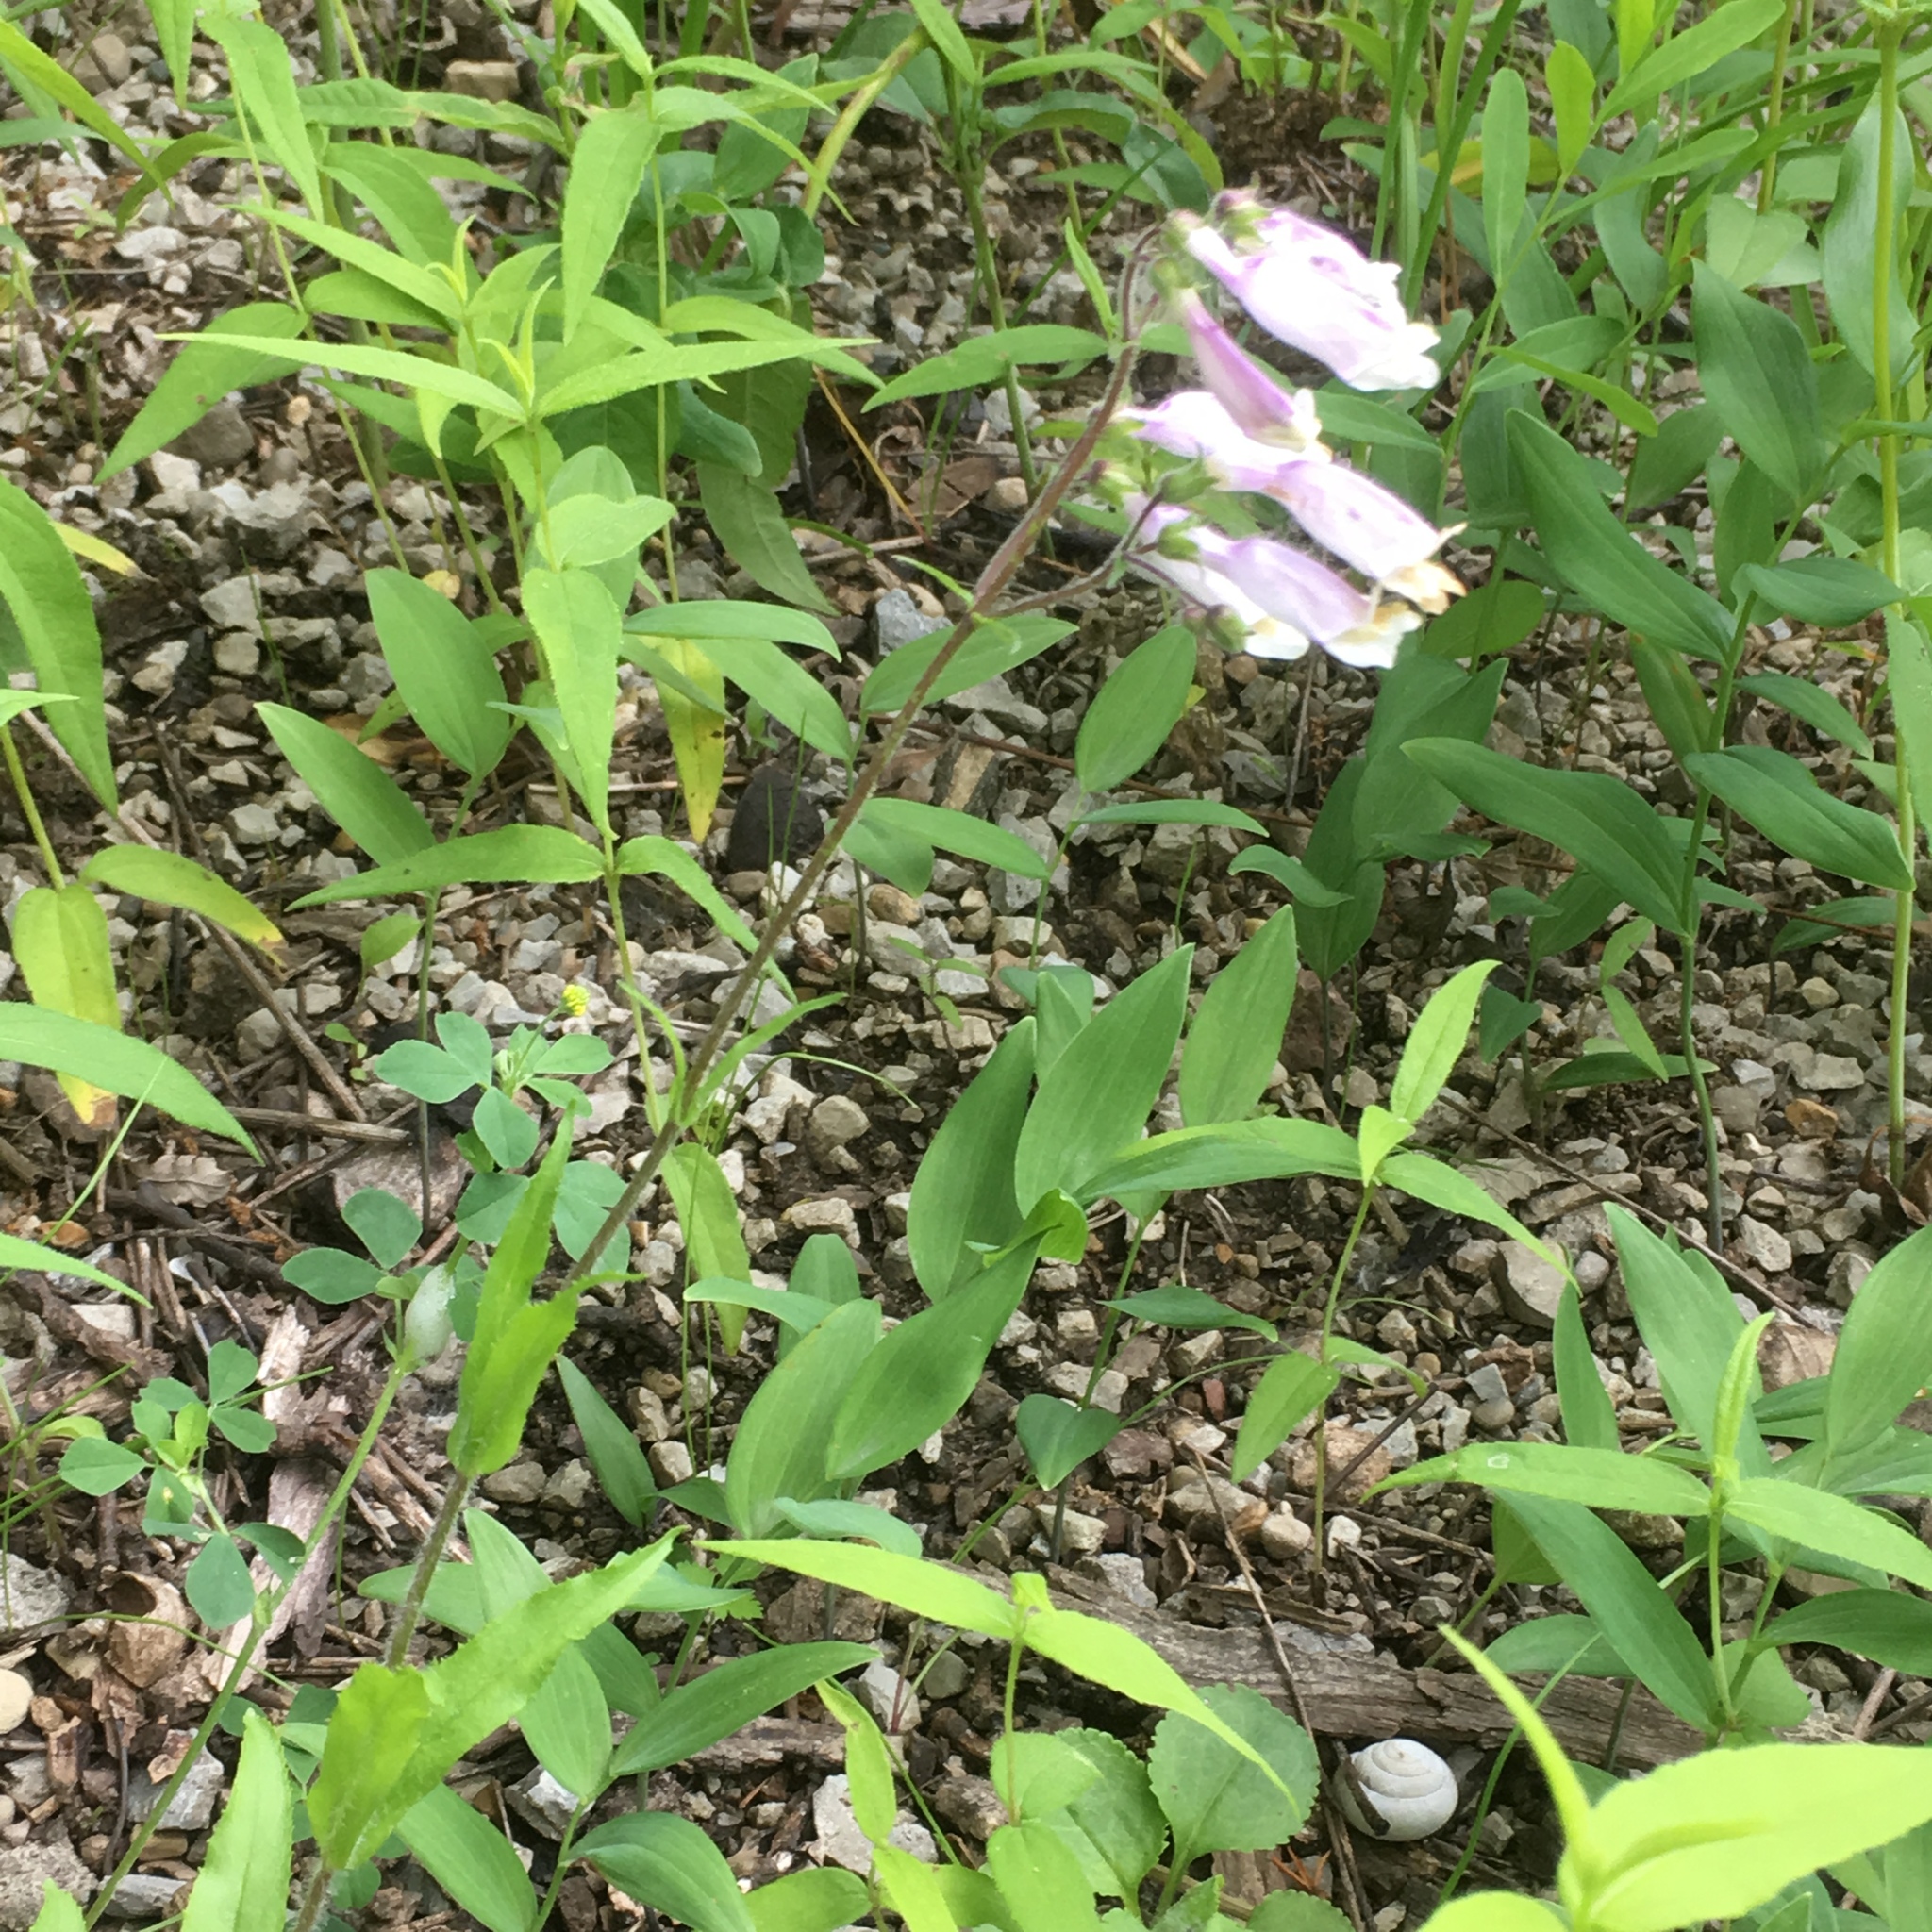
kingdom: Plantae
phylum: Tracheophyta
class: Magnoliopsida
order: Lamiales
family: Plantaginaceae
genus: Penstemon
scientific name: Penstemon hirsutus
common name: Hairy beardtongue
